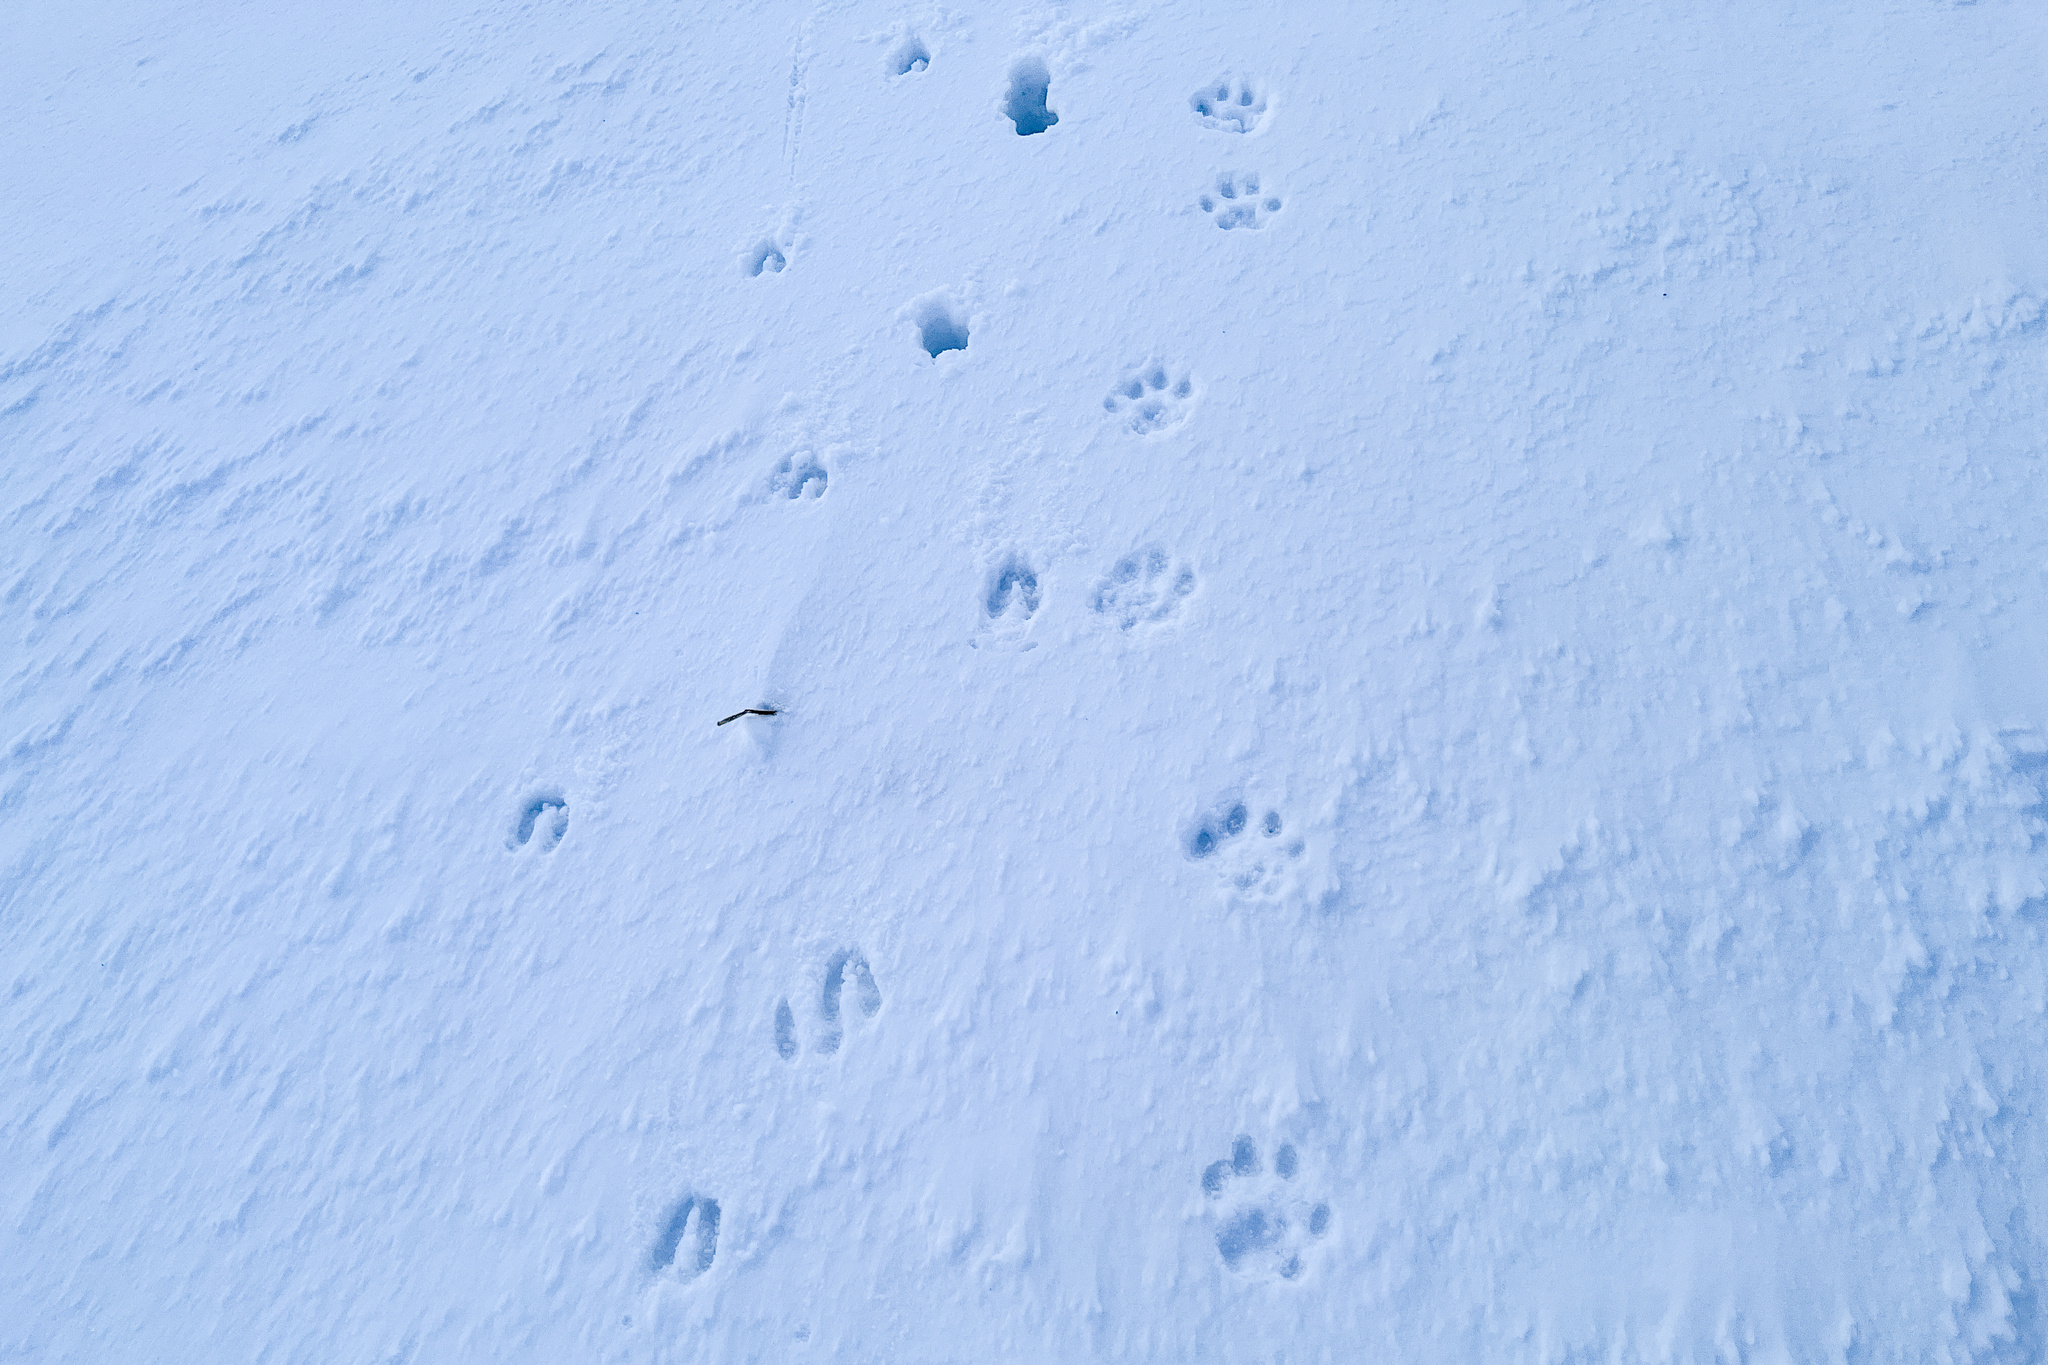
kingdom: Animalia
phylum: Chordata
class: Mammalia
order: Carnivora
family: Felidae
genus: Lynx
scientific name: Lynx lynx
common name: Eurasian lynx
